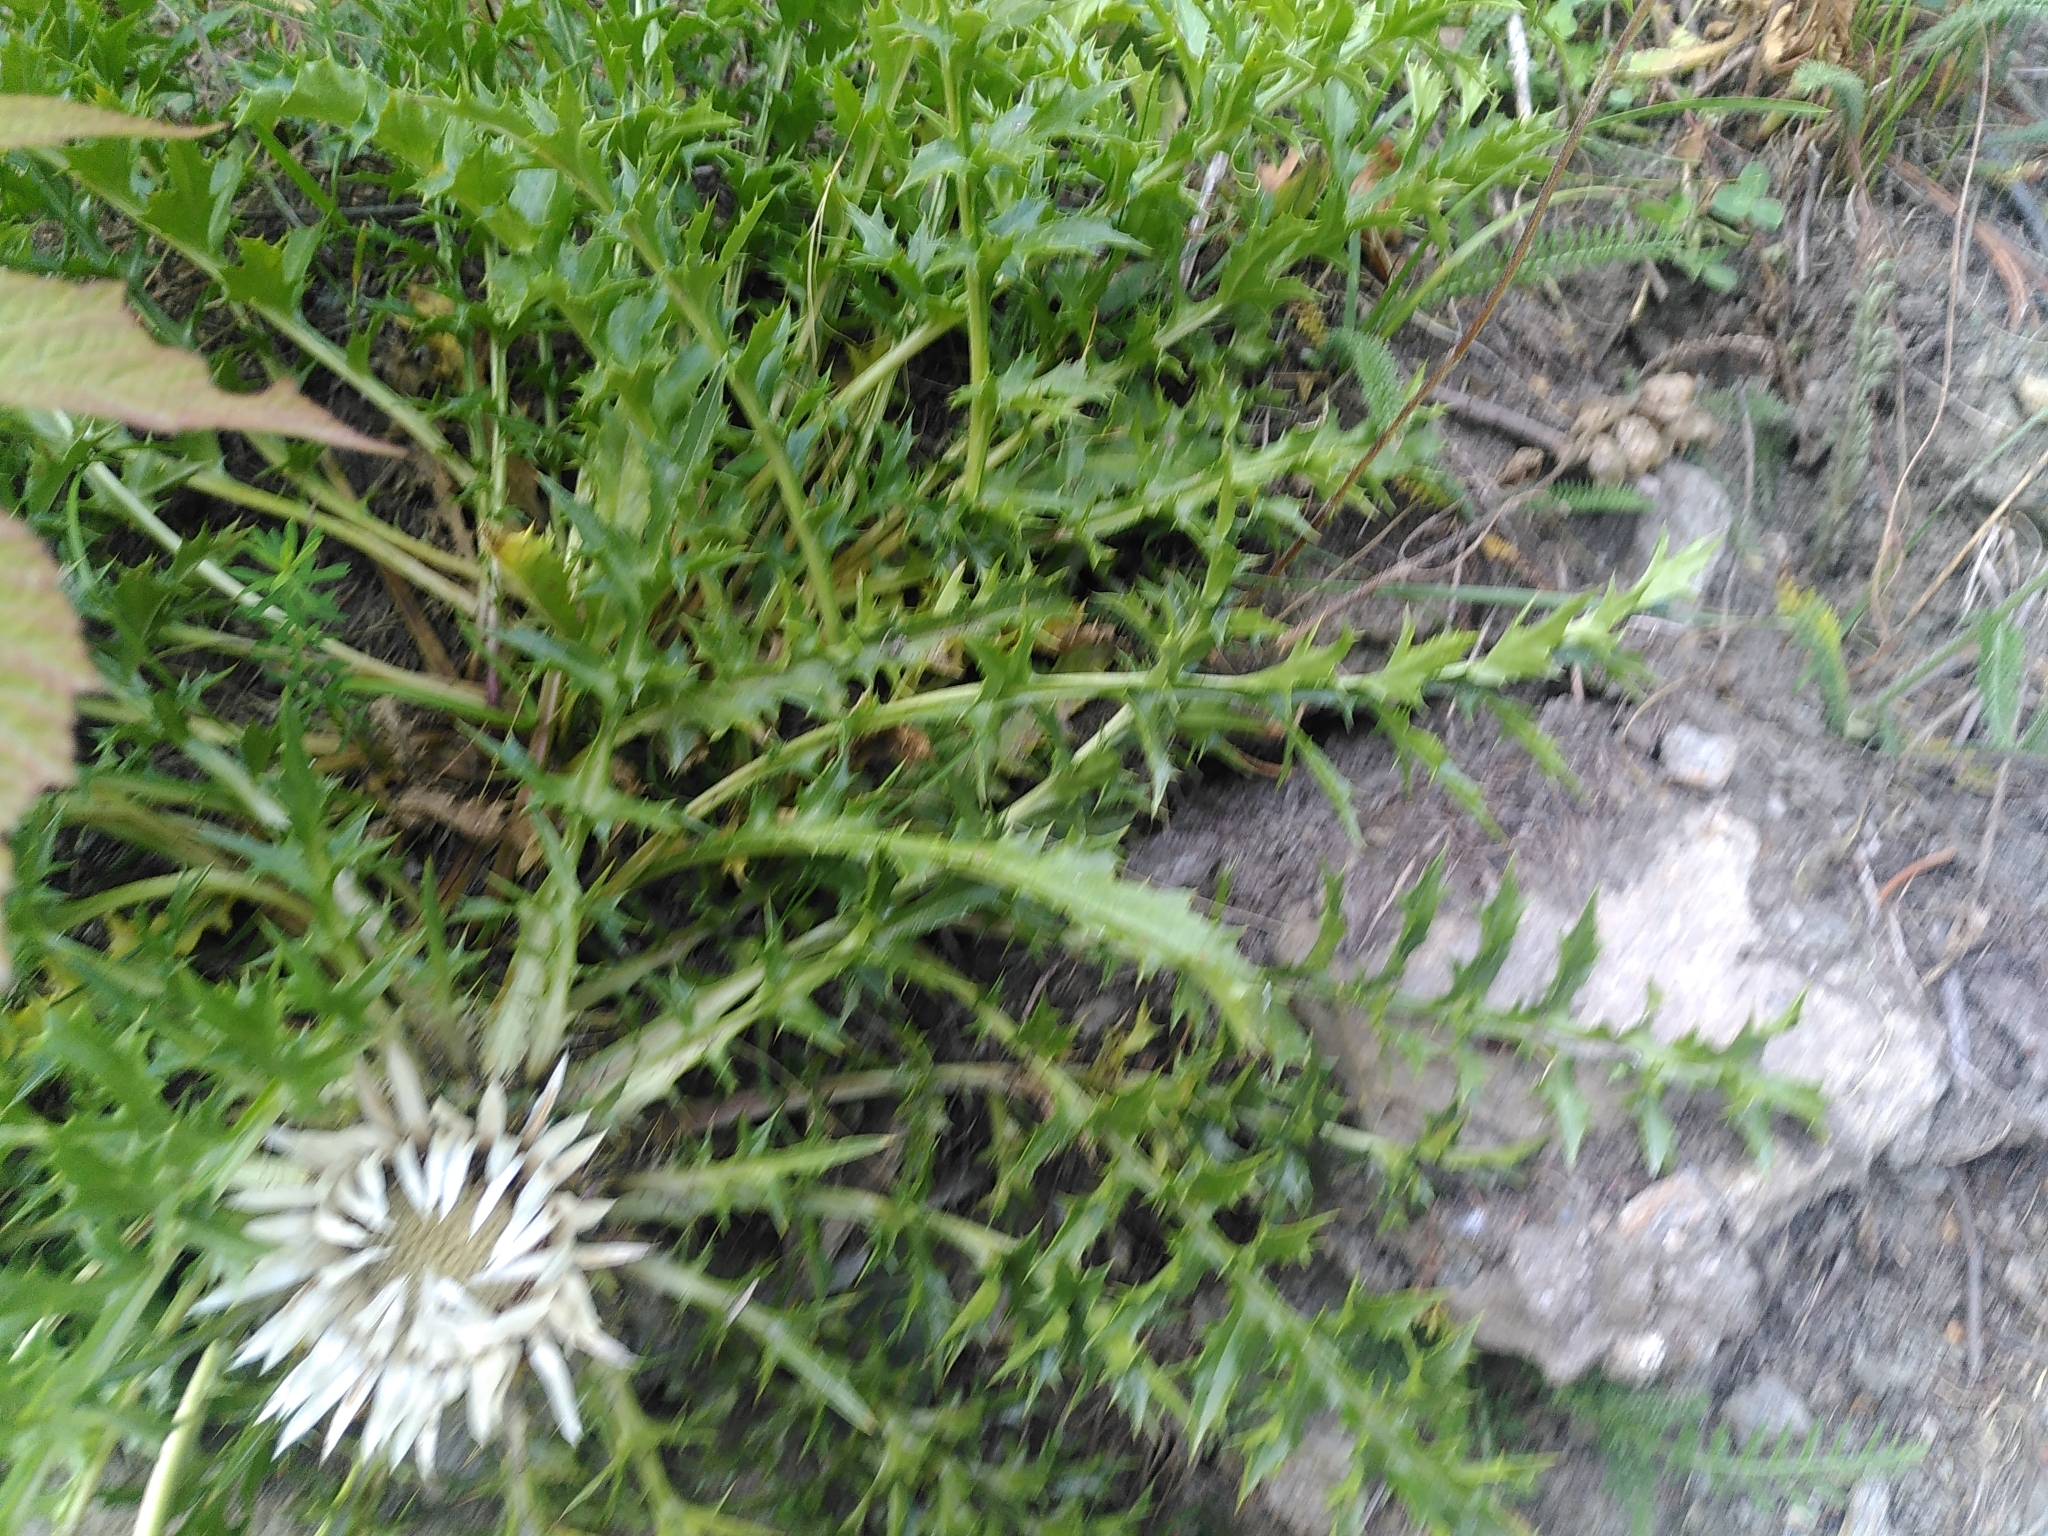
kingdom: Plantae
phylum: Tracheophyta
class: Magnoliopsida
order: Asterales
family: Asteraceae
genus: Carlina
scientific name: Carlina acaulis
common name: Stemless carline thistle
